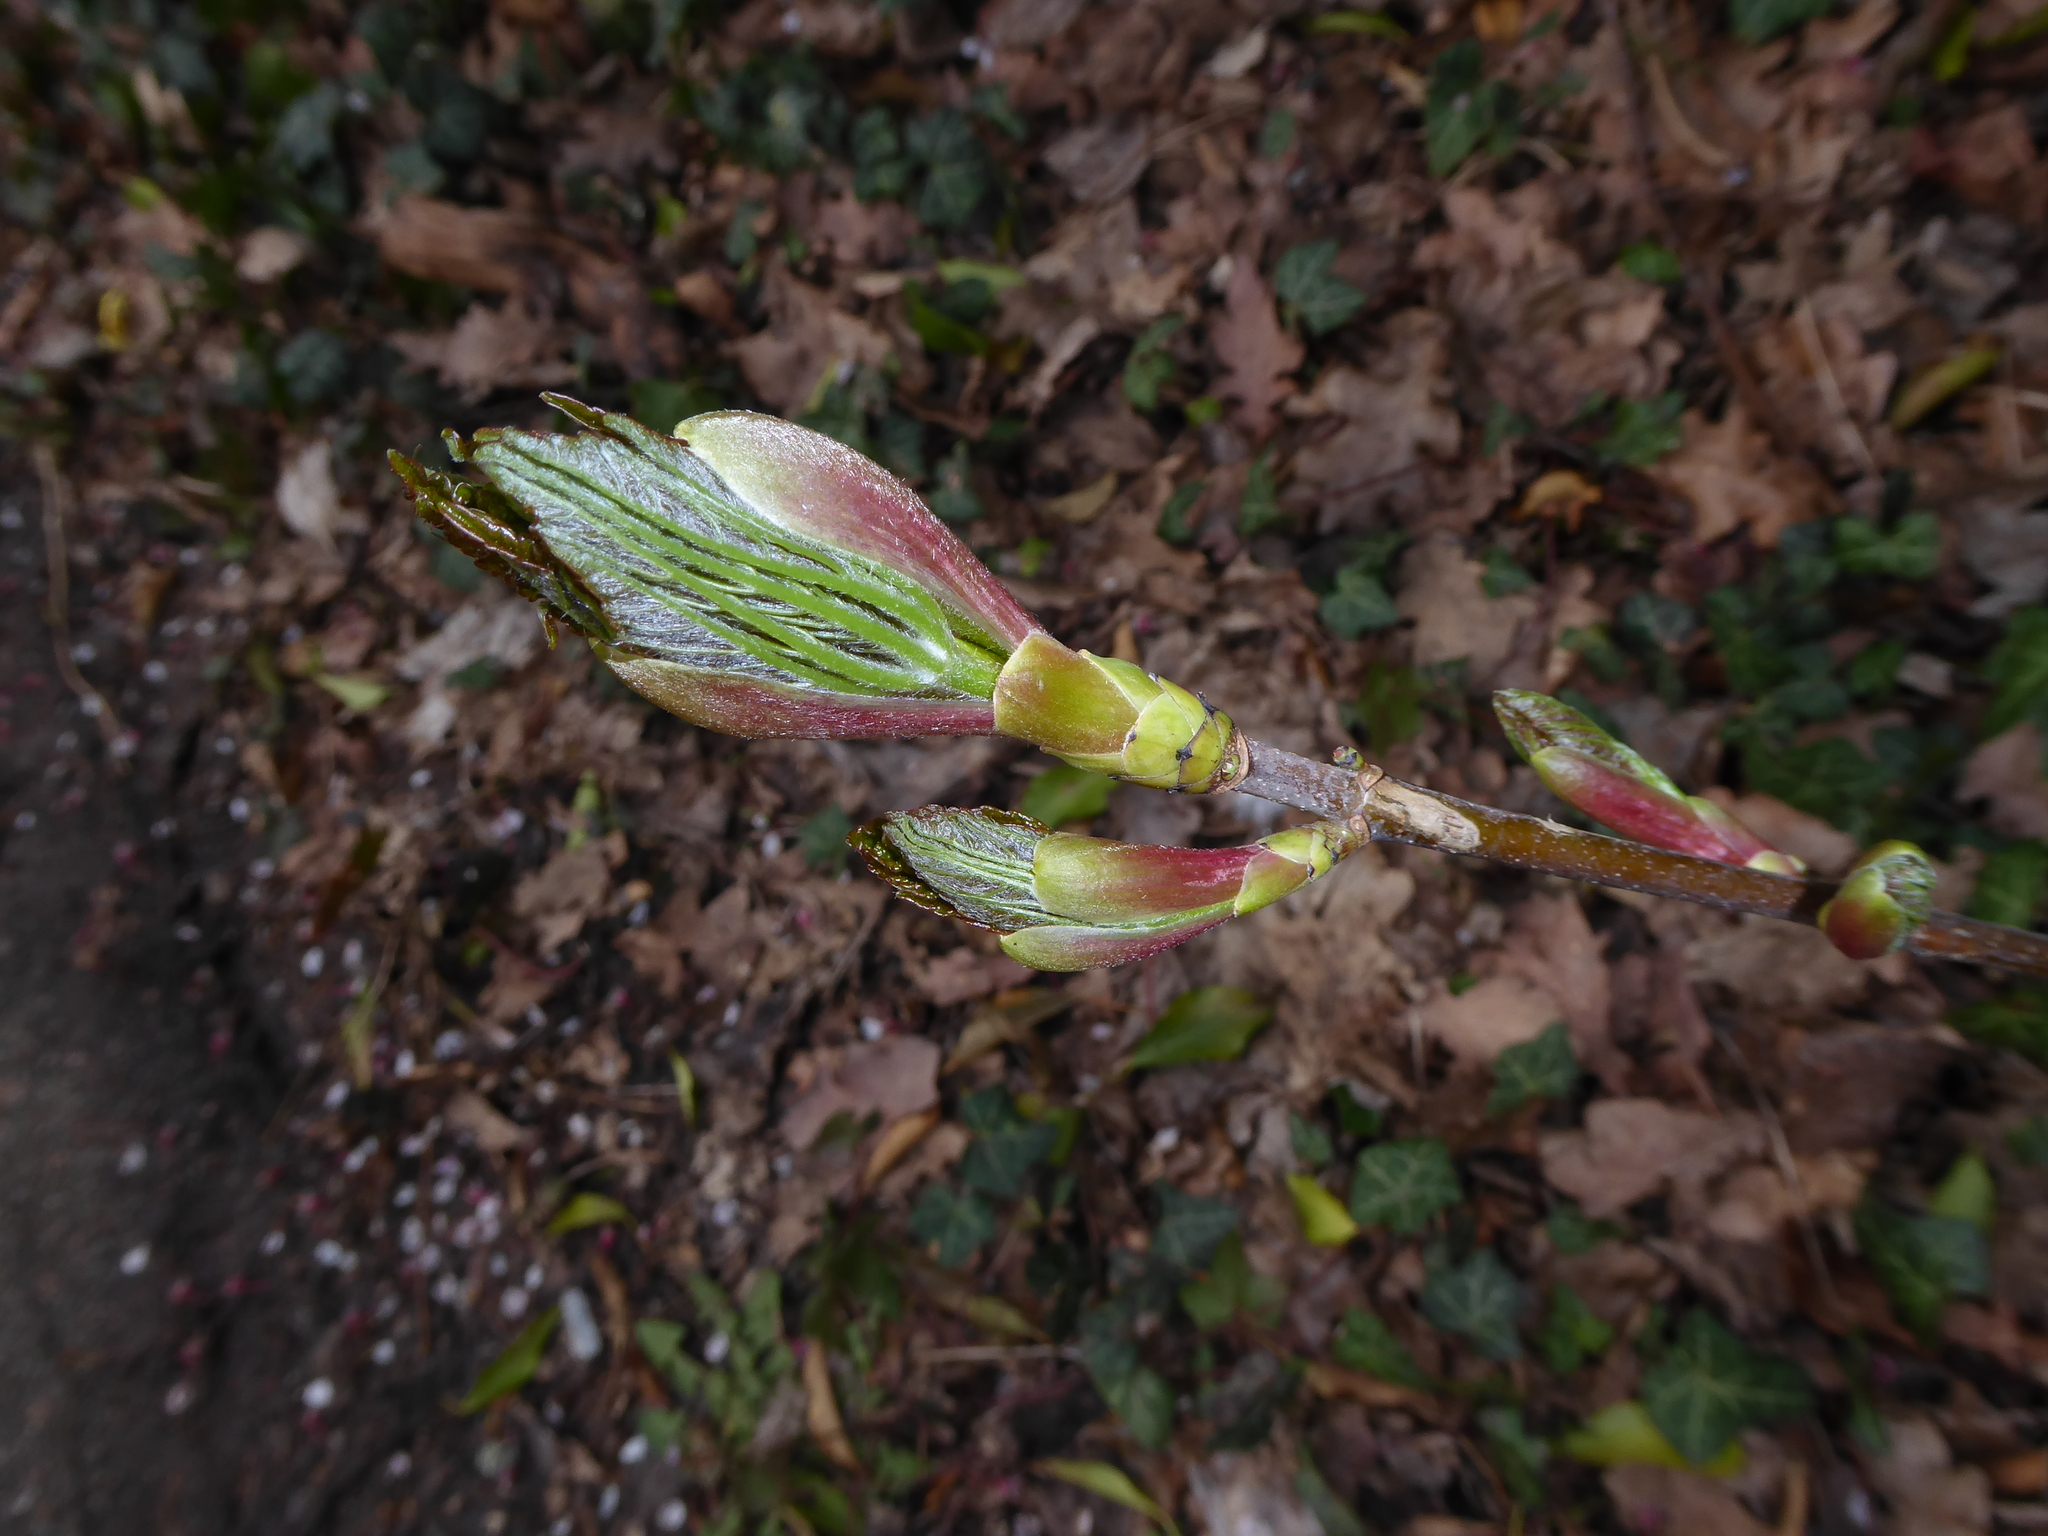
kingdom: Plantae
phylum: Tracheophyta
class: Magnoliopsida
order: Sapindales
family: Sapindaceae
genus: Acer
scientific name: Acer pseudoplatanus
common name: Sycamore
